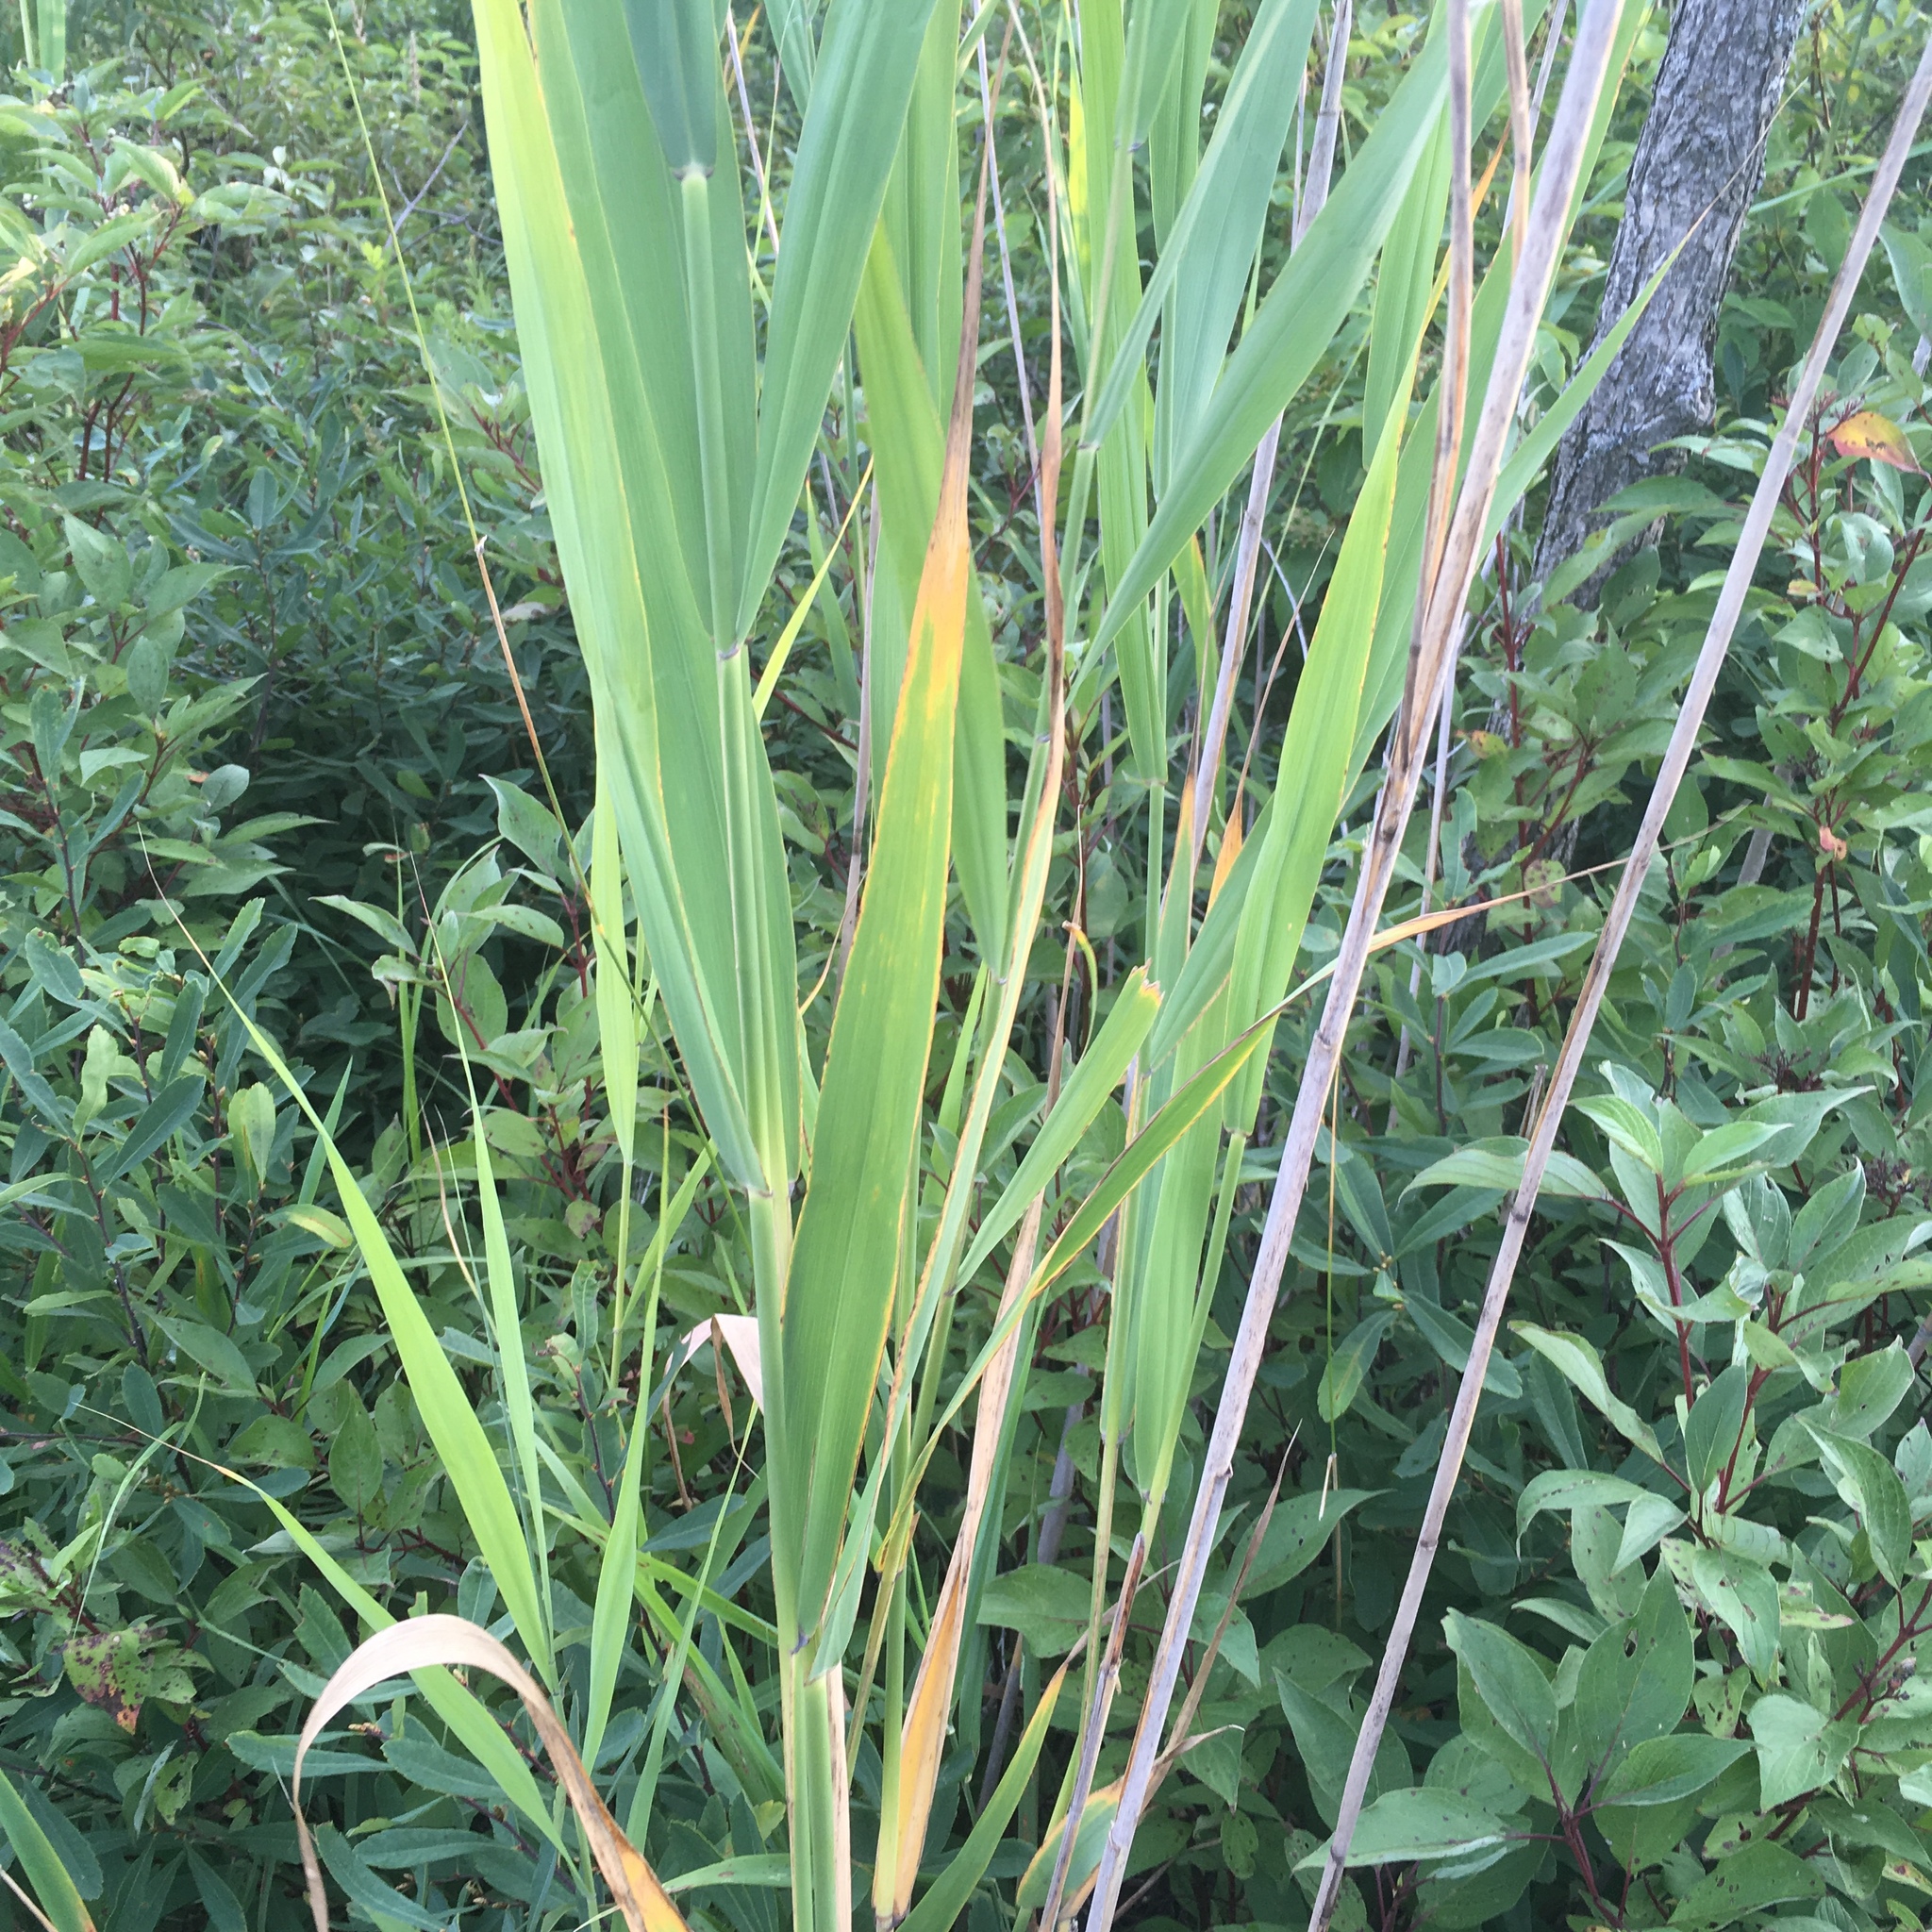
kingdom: Plantae
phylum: Tracheophyta
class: Liliopsida
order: Poales
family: Poaceae
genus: Phragmites
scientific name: Phragmites australis
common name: Common reed
